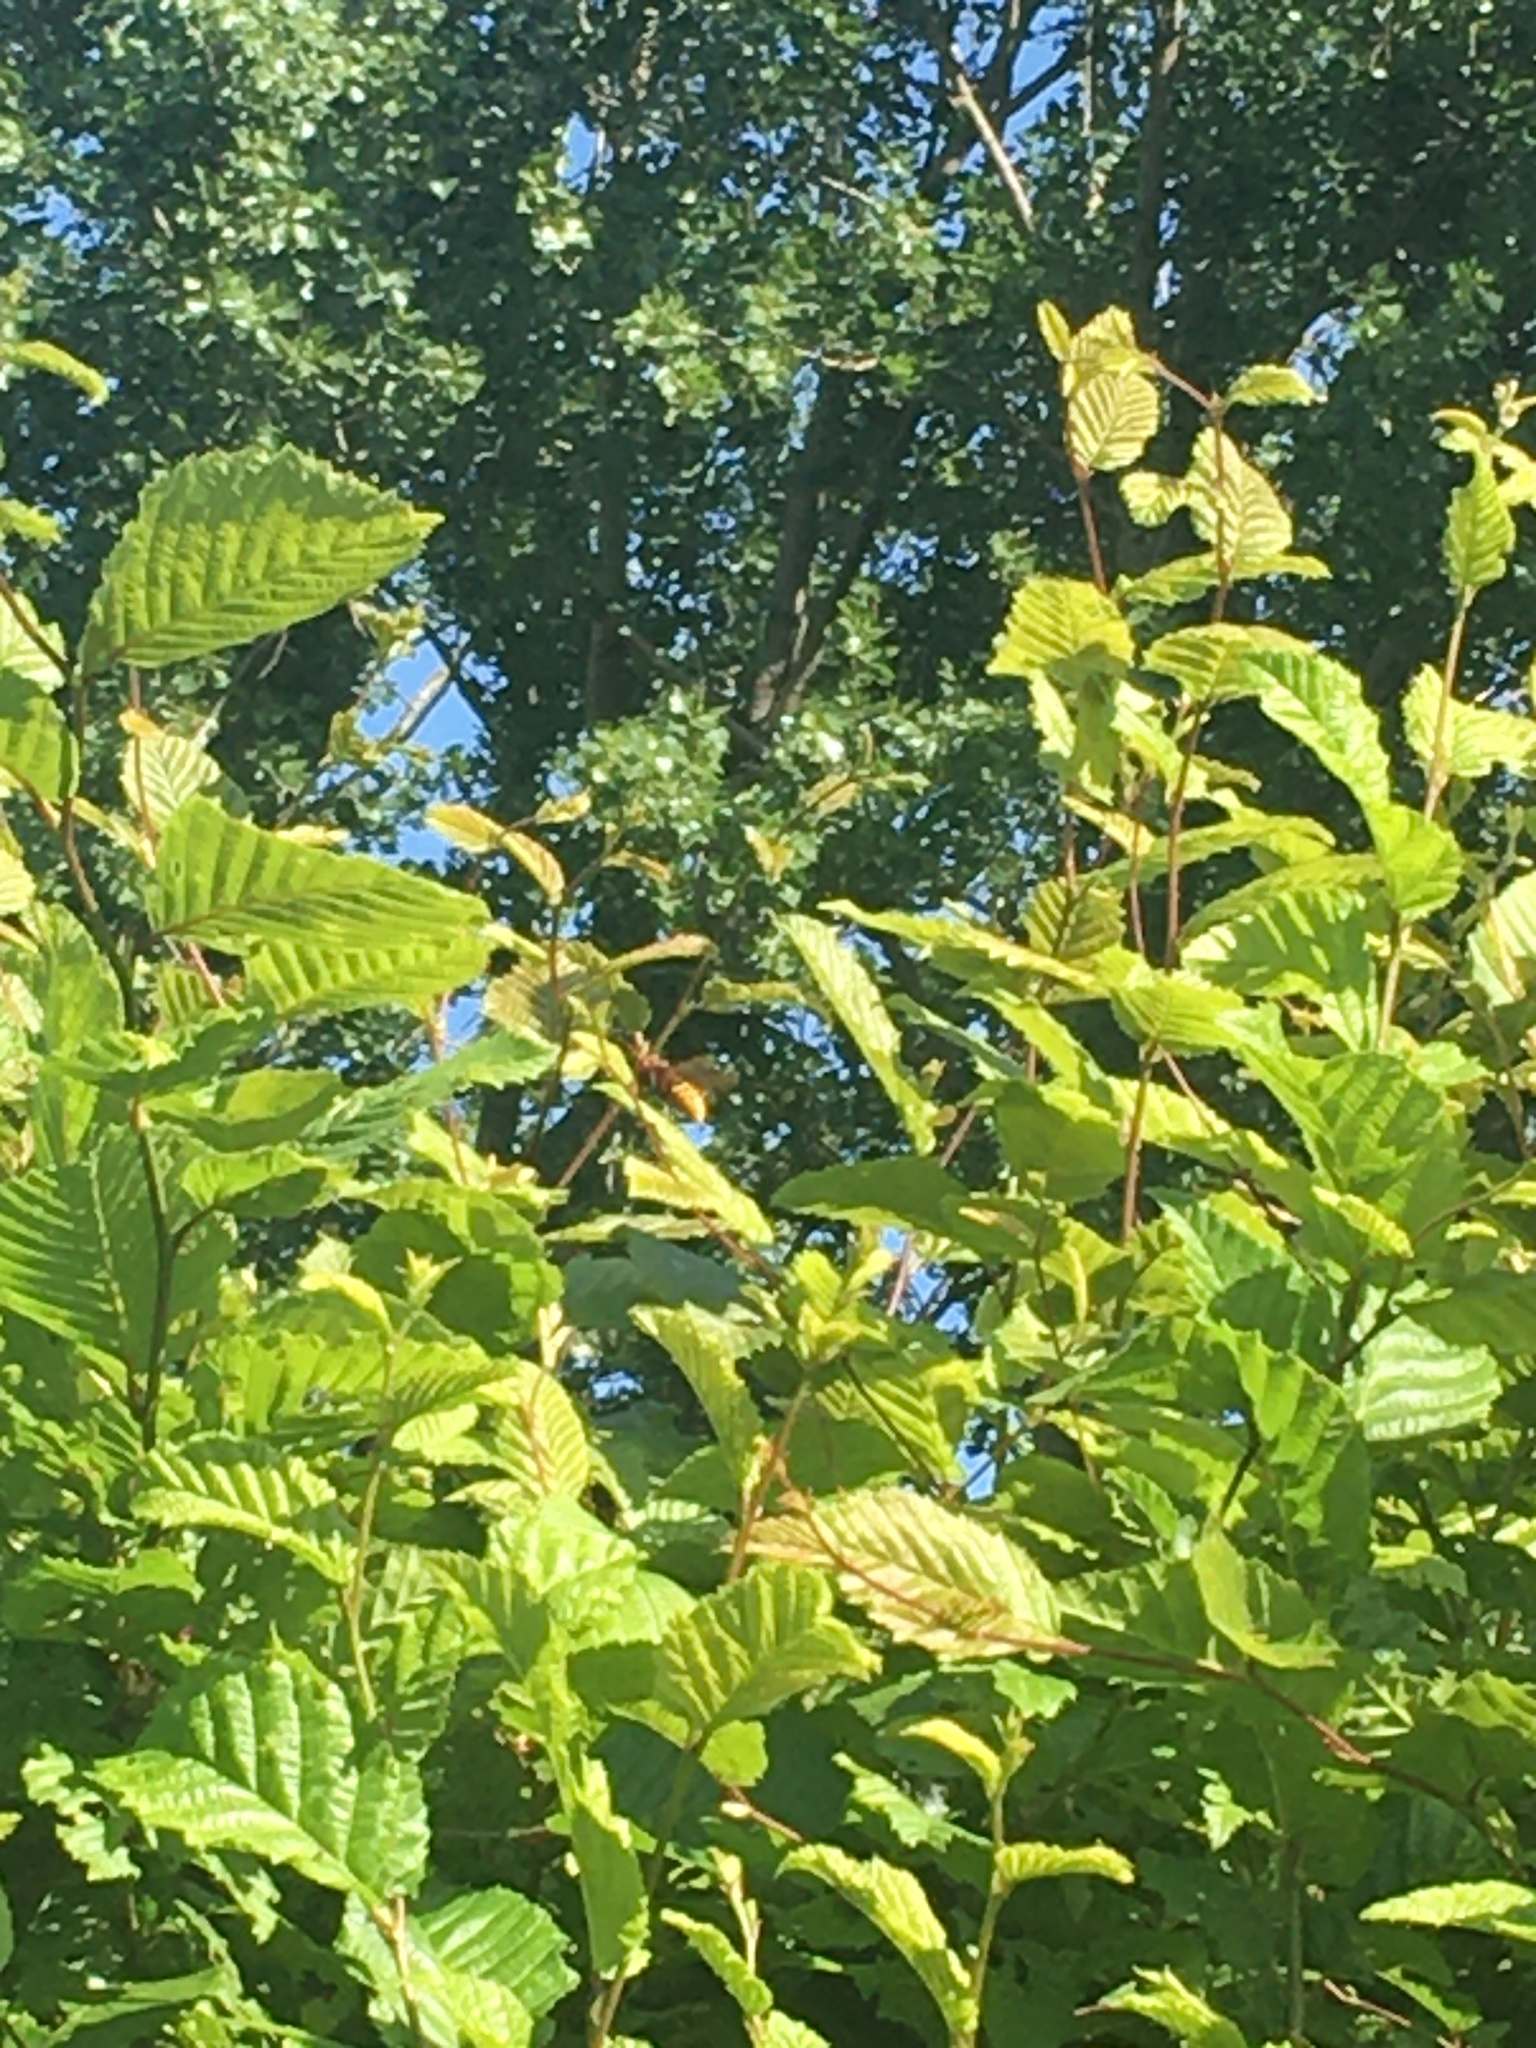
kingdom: Animalia
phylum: Arthropoda
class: Insecta
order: Hymenoptera
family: Vespidae
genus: Vespa
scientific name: Vespa crabro
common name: Hornet
